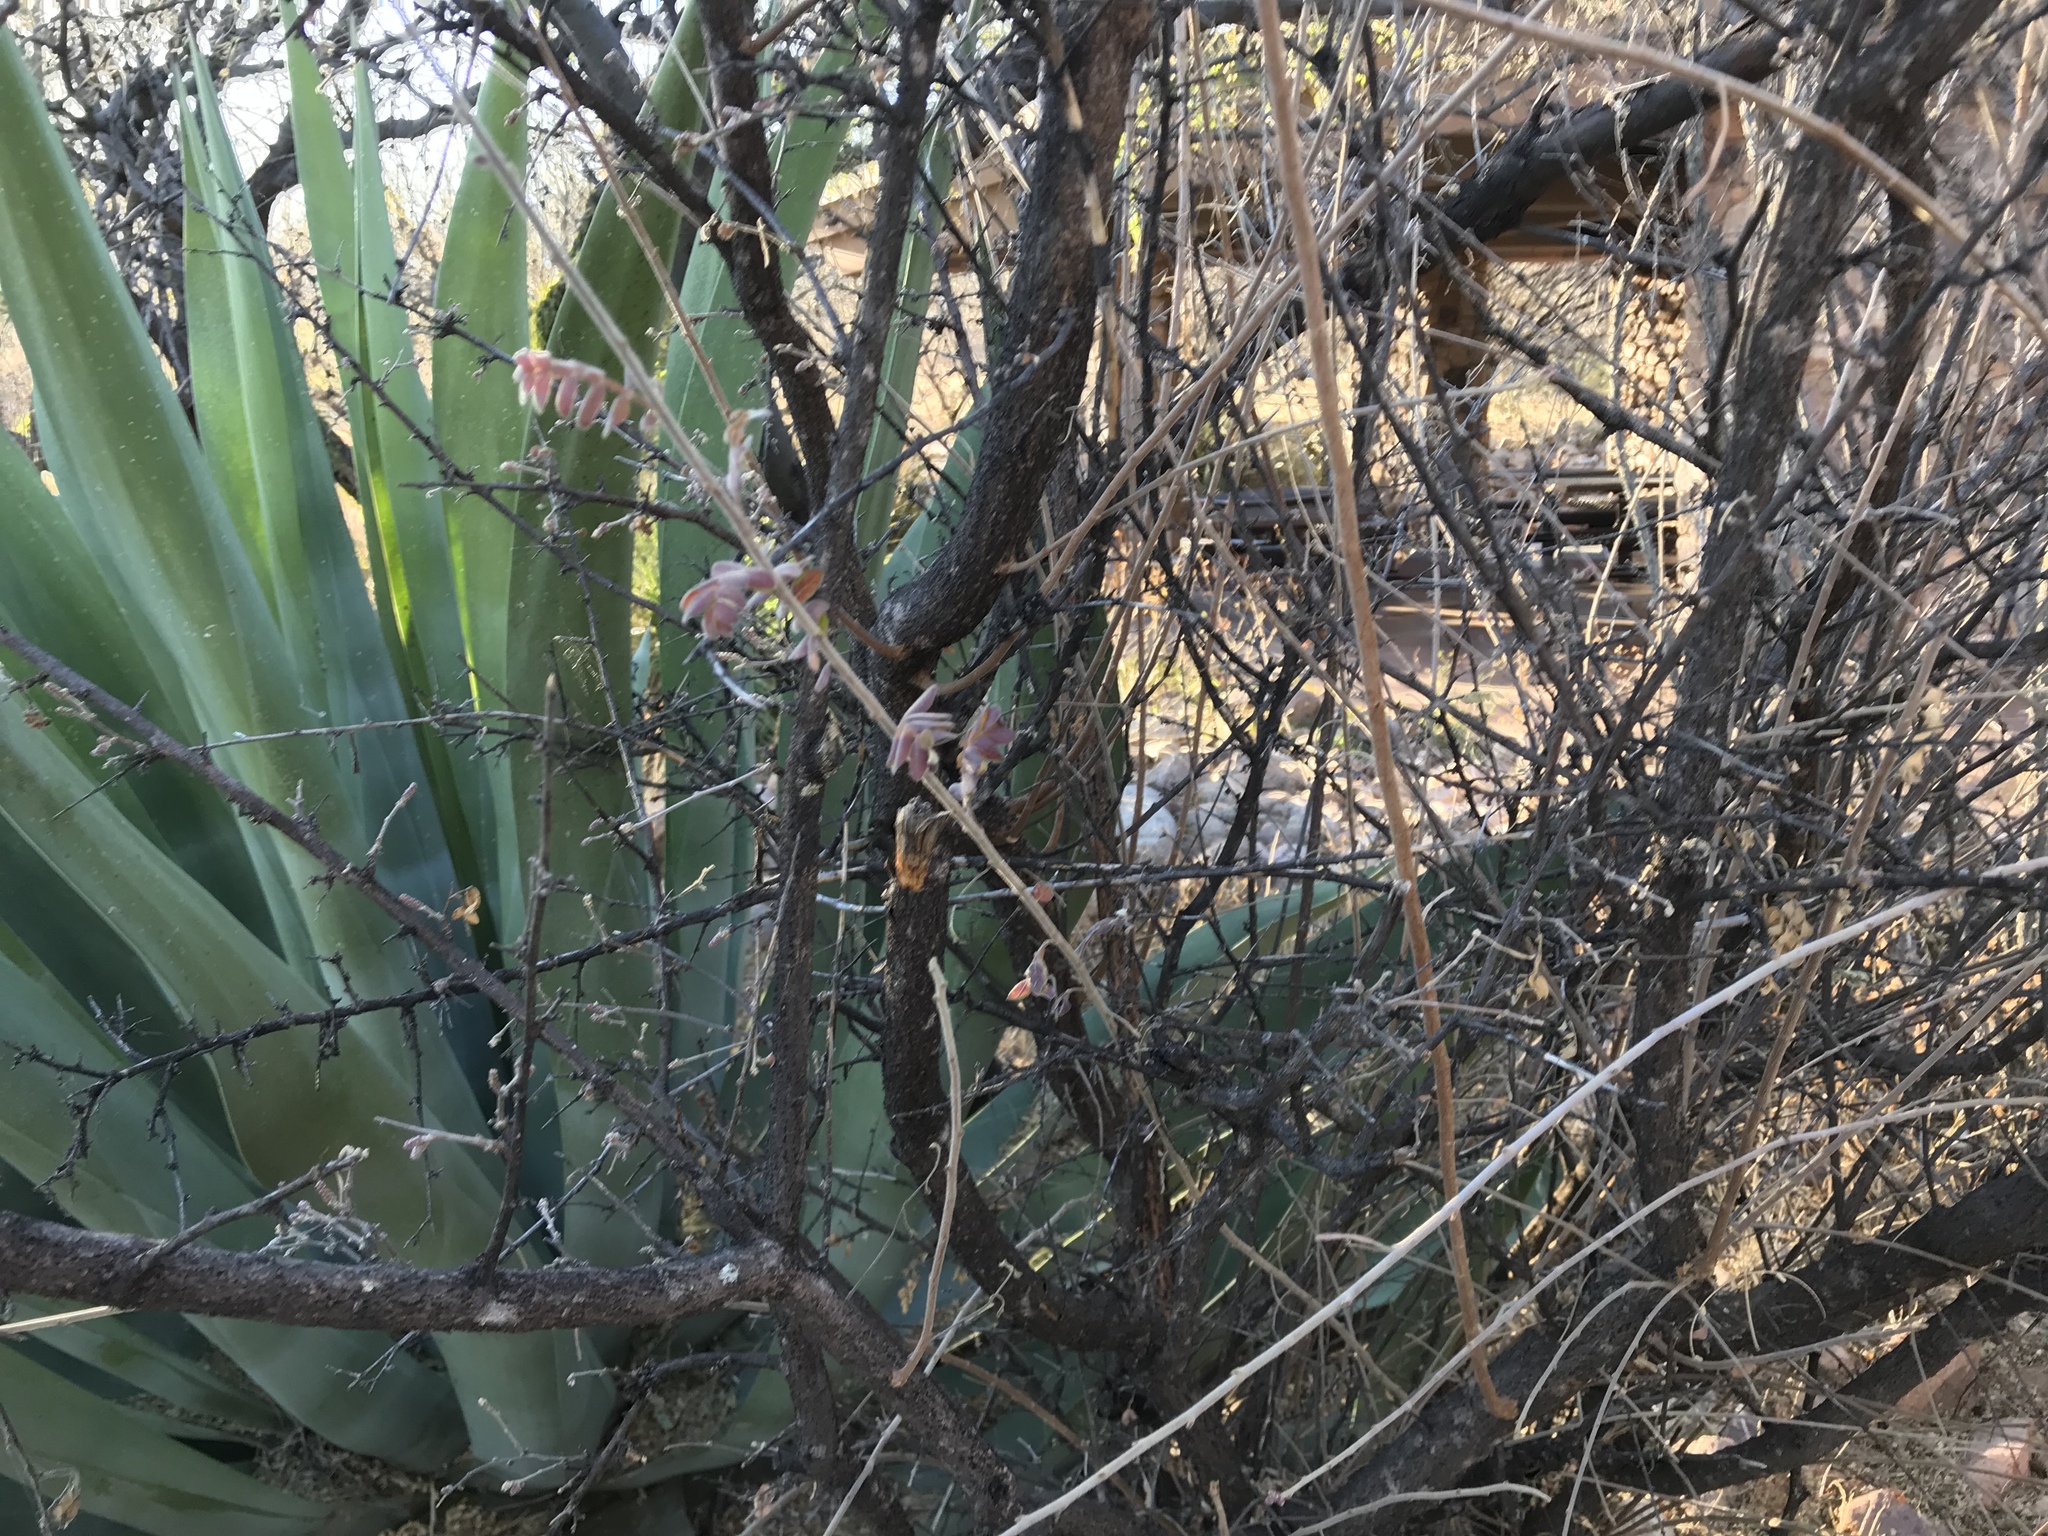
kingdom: Plantae
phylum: Tracheophyta
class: Magnoliopsida
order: Sapindales
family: Anacardiaceae
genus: Rhus
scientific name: Rhus microphylla
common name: Desert sumac
